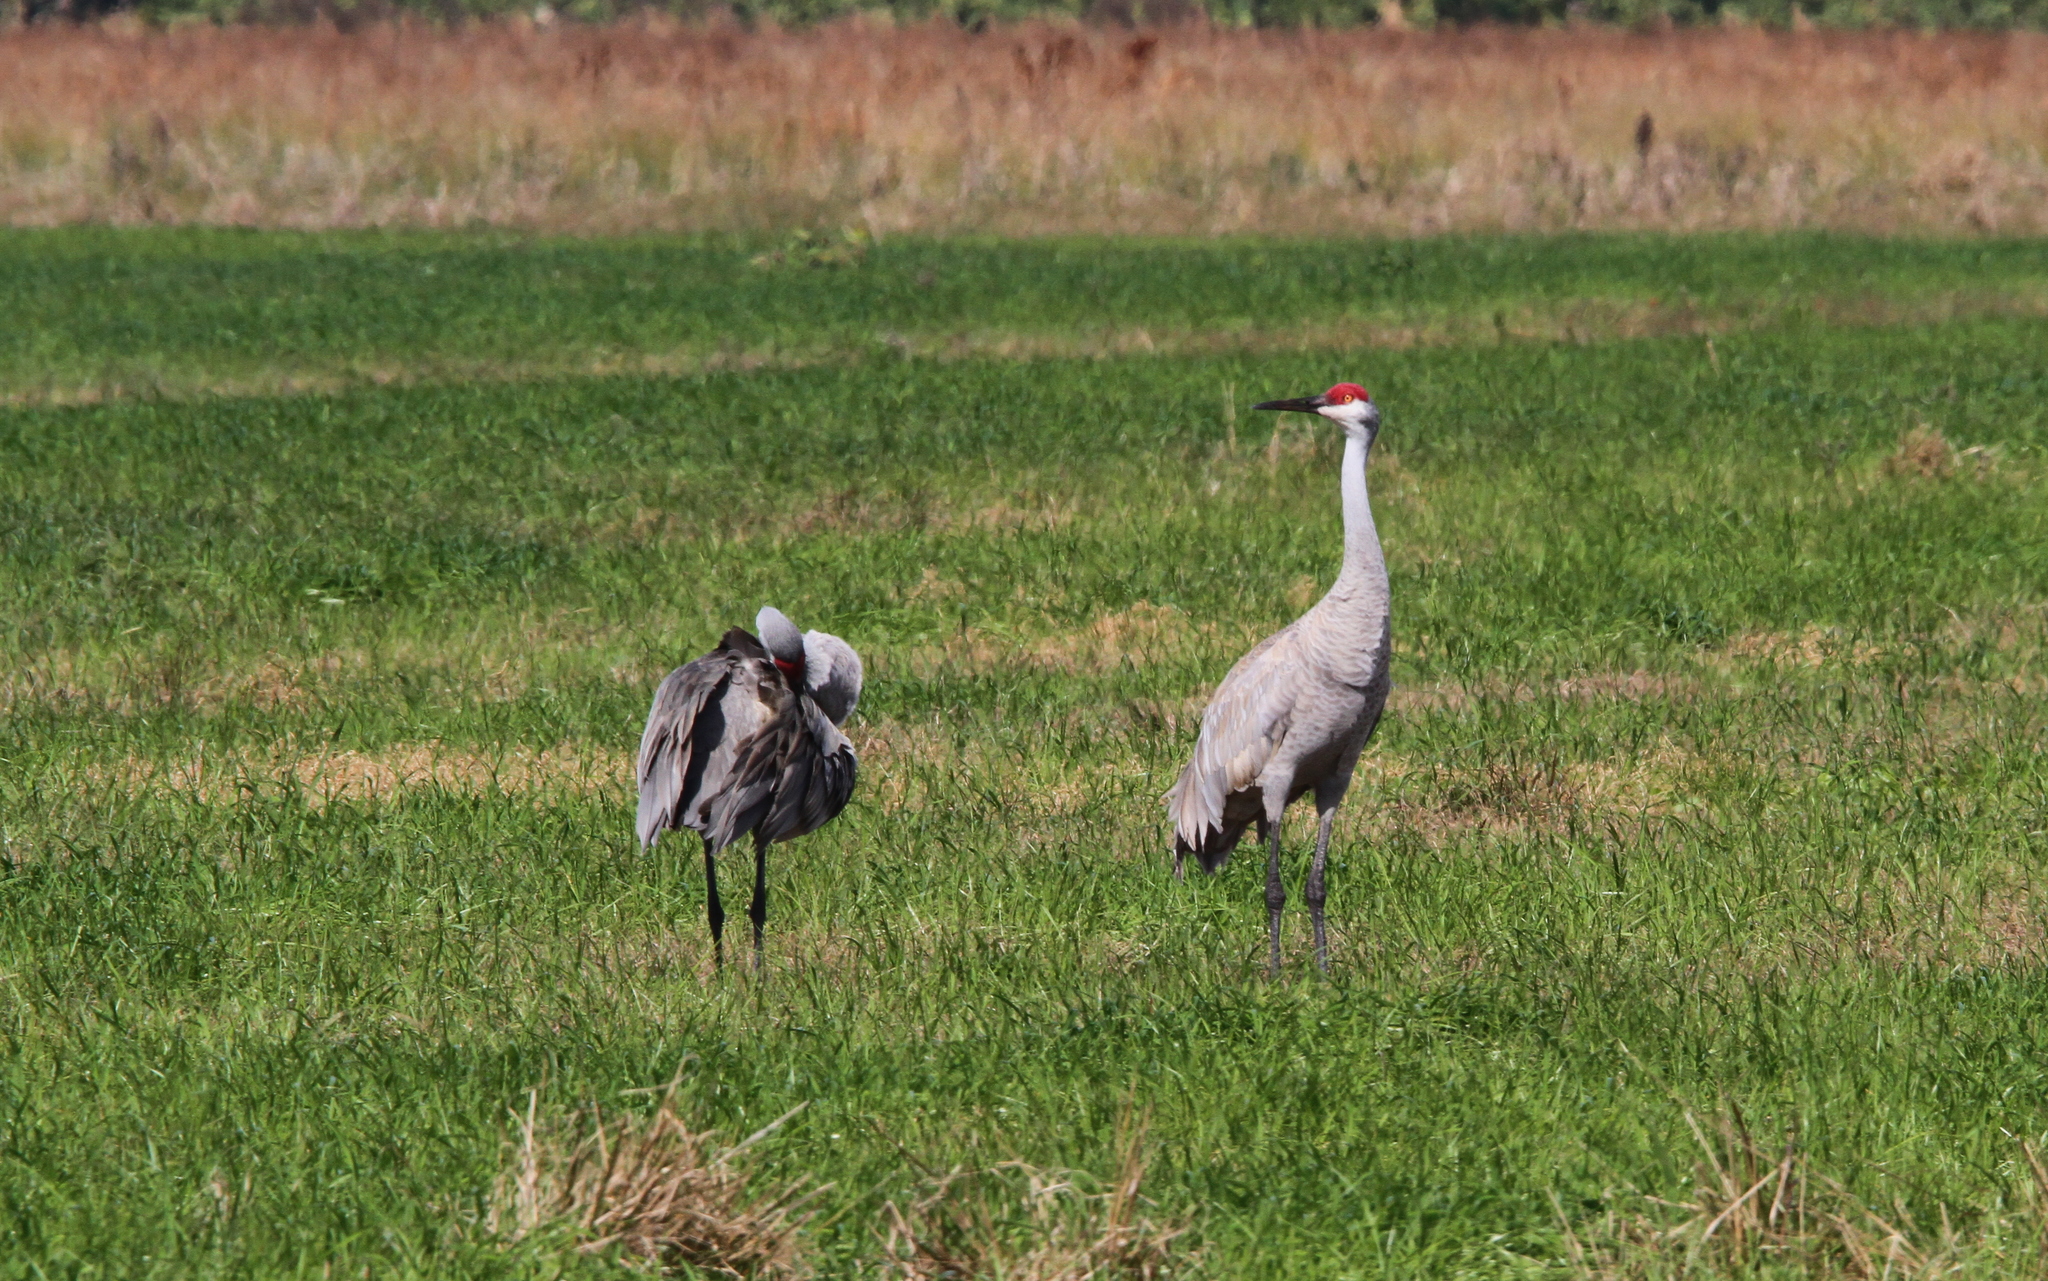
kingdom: Animalia
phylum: Chordata
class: Aves
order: Gruiformes
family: Gruidae
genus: Grus
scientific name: Grus canadensis
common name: Sandhill crane
